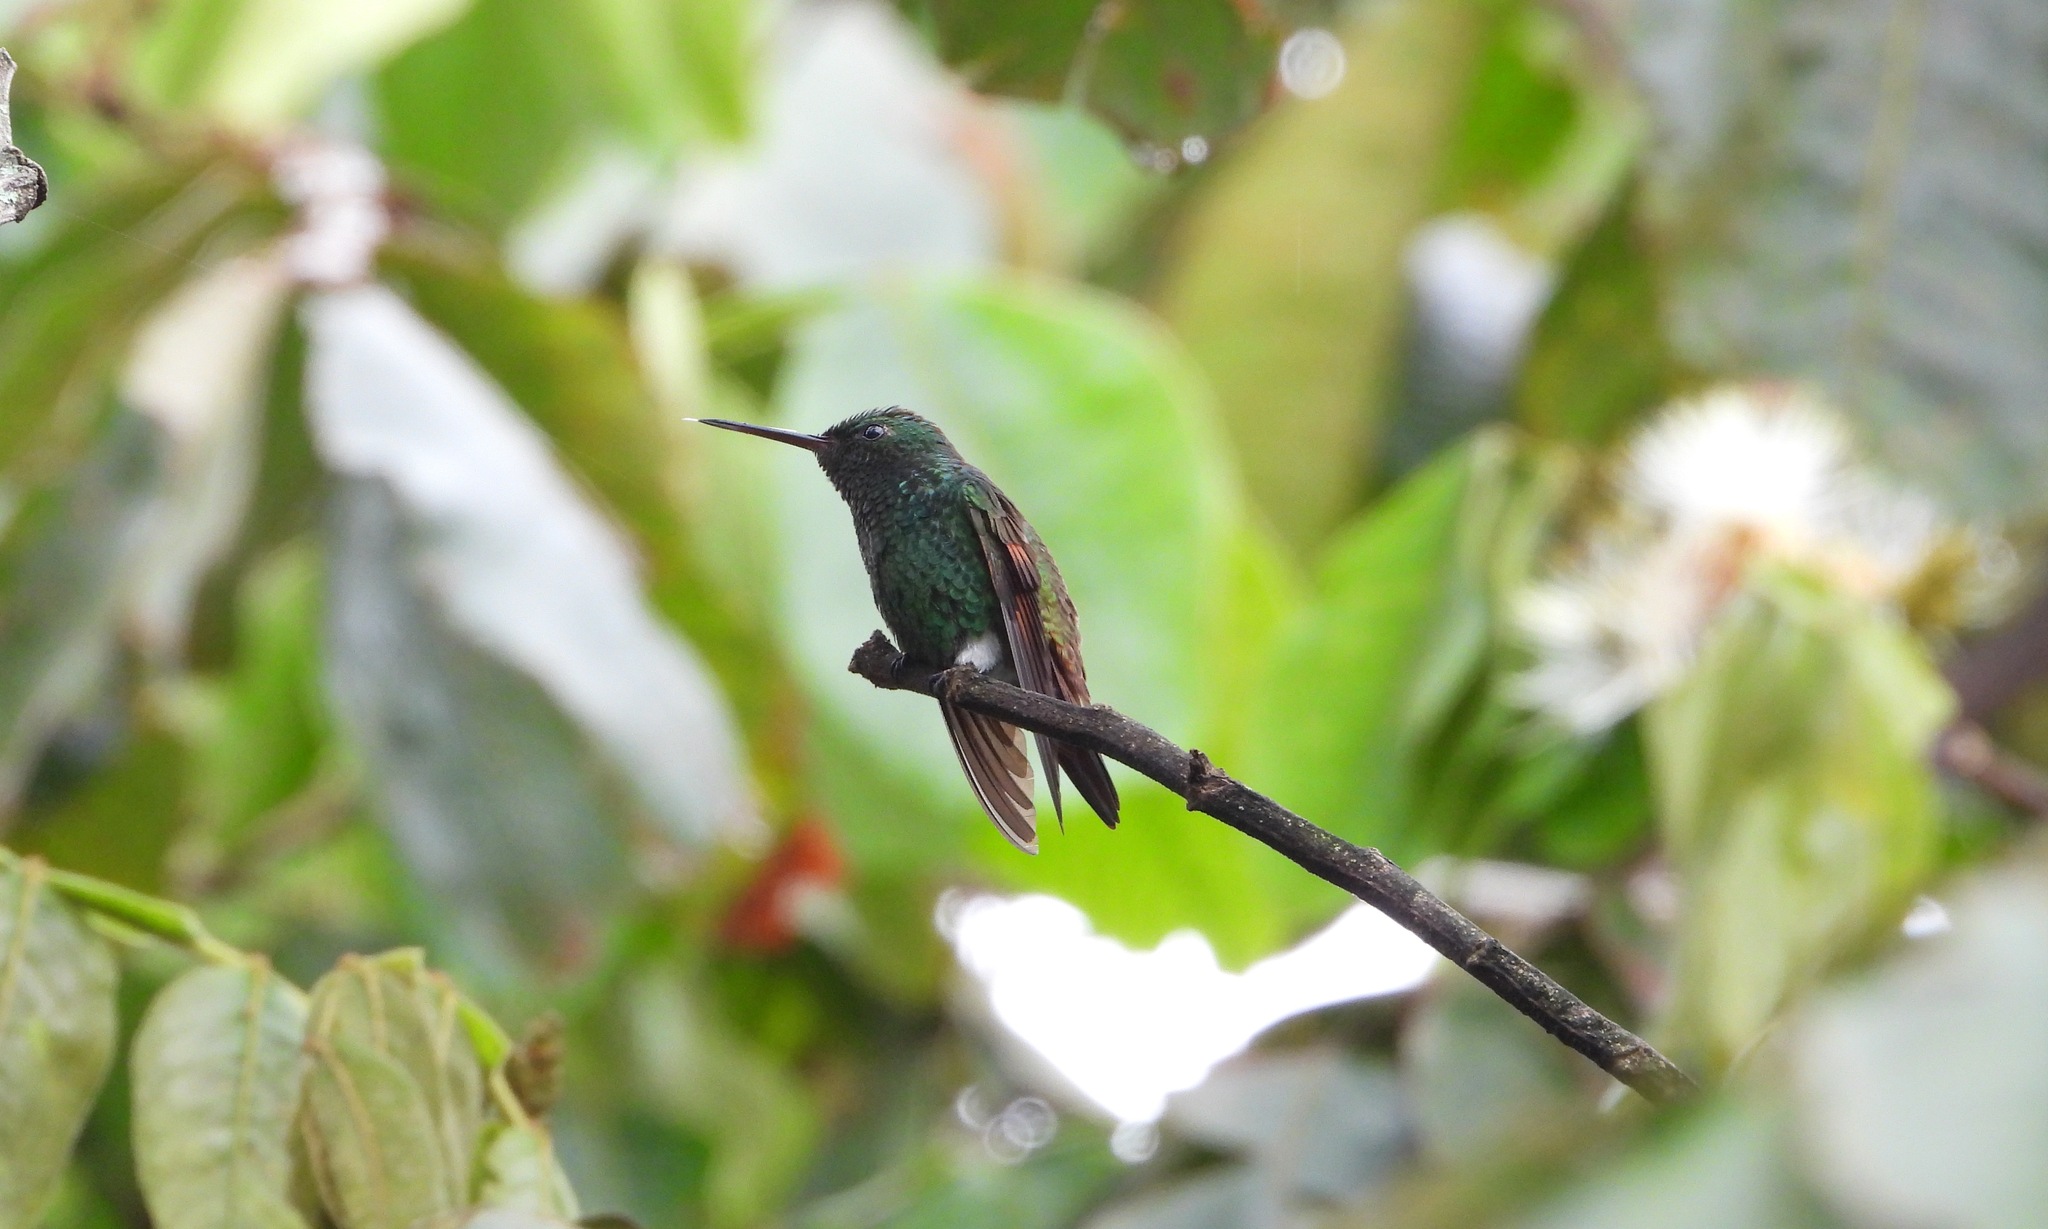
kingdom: Animalia
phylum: Chordata
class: Aves
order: Apodiformes
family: Trochilidae
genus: Saucerottia
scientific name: Saucerottia beryllina
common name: Berylline hummingbird
